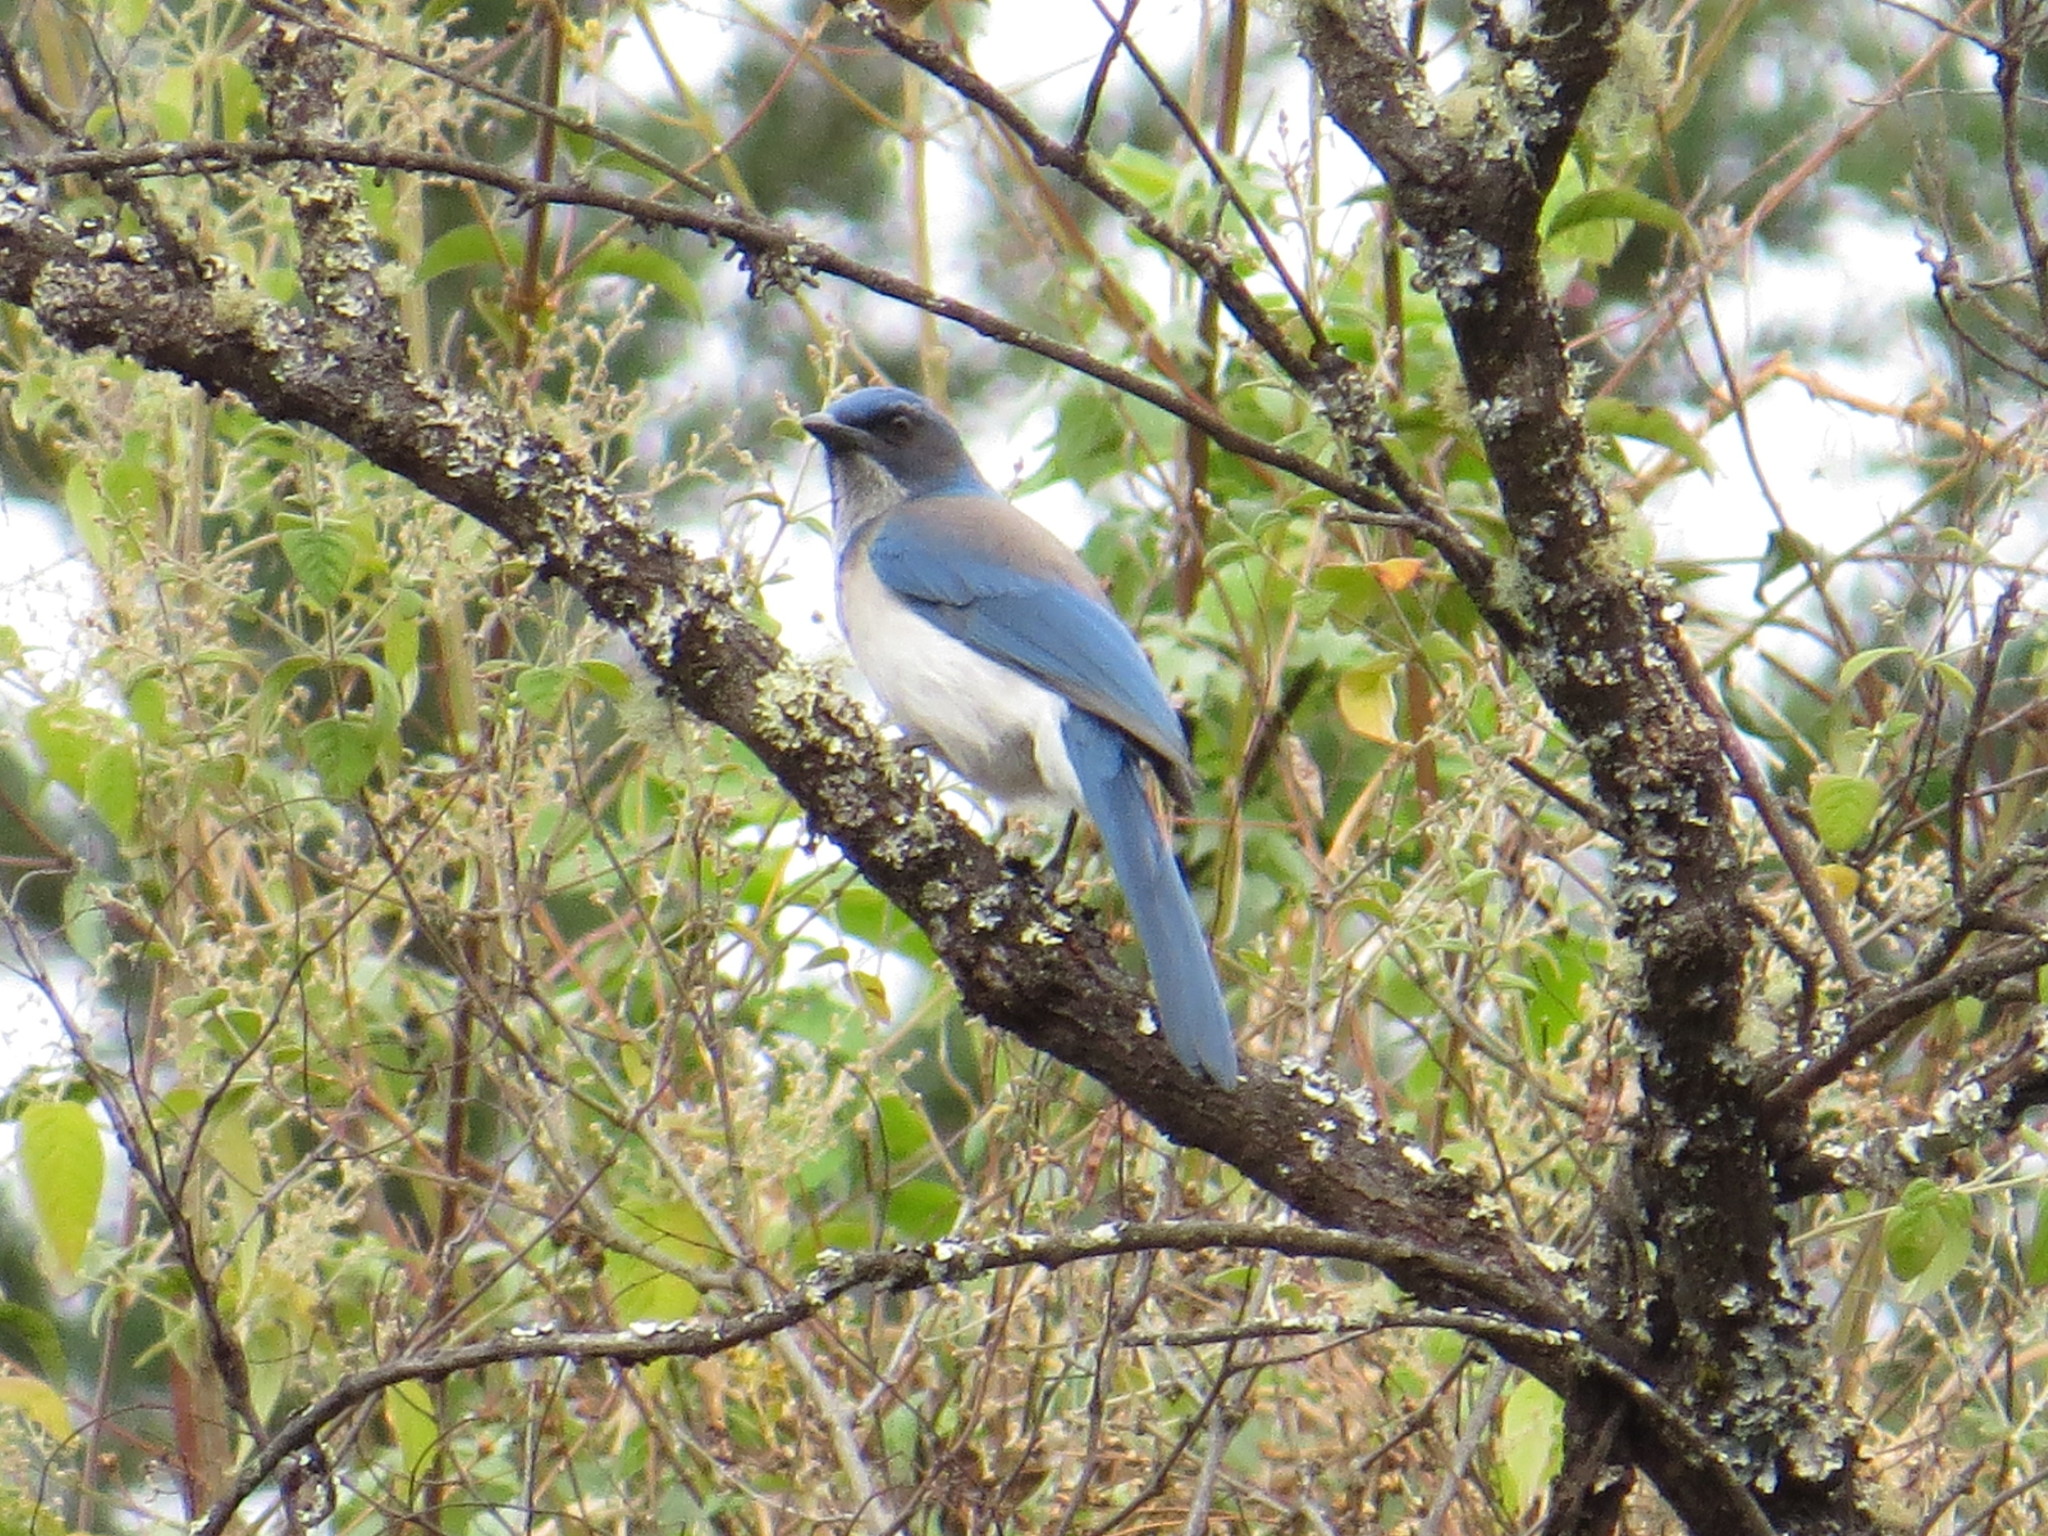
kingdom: Animalia
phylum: Chordata
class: Aves
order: Passeriformes
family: Corvidae
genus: Aphelocoma
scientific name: Aphelocoma woodhouseii
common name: Woodhouse's scrub-jay
